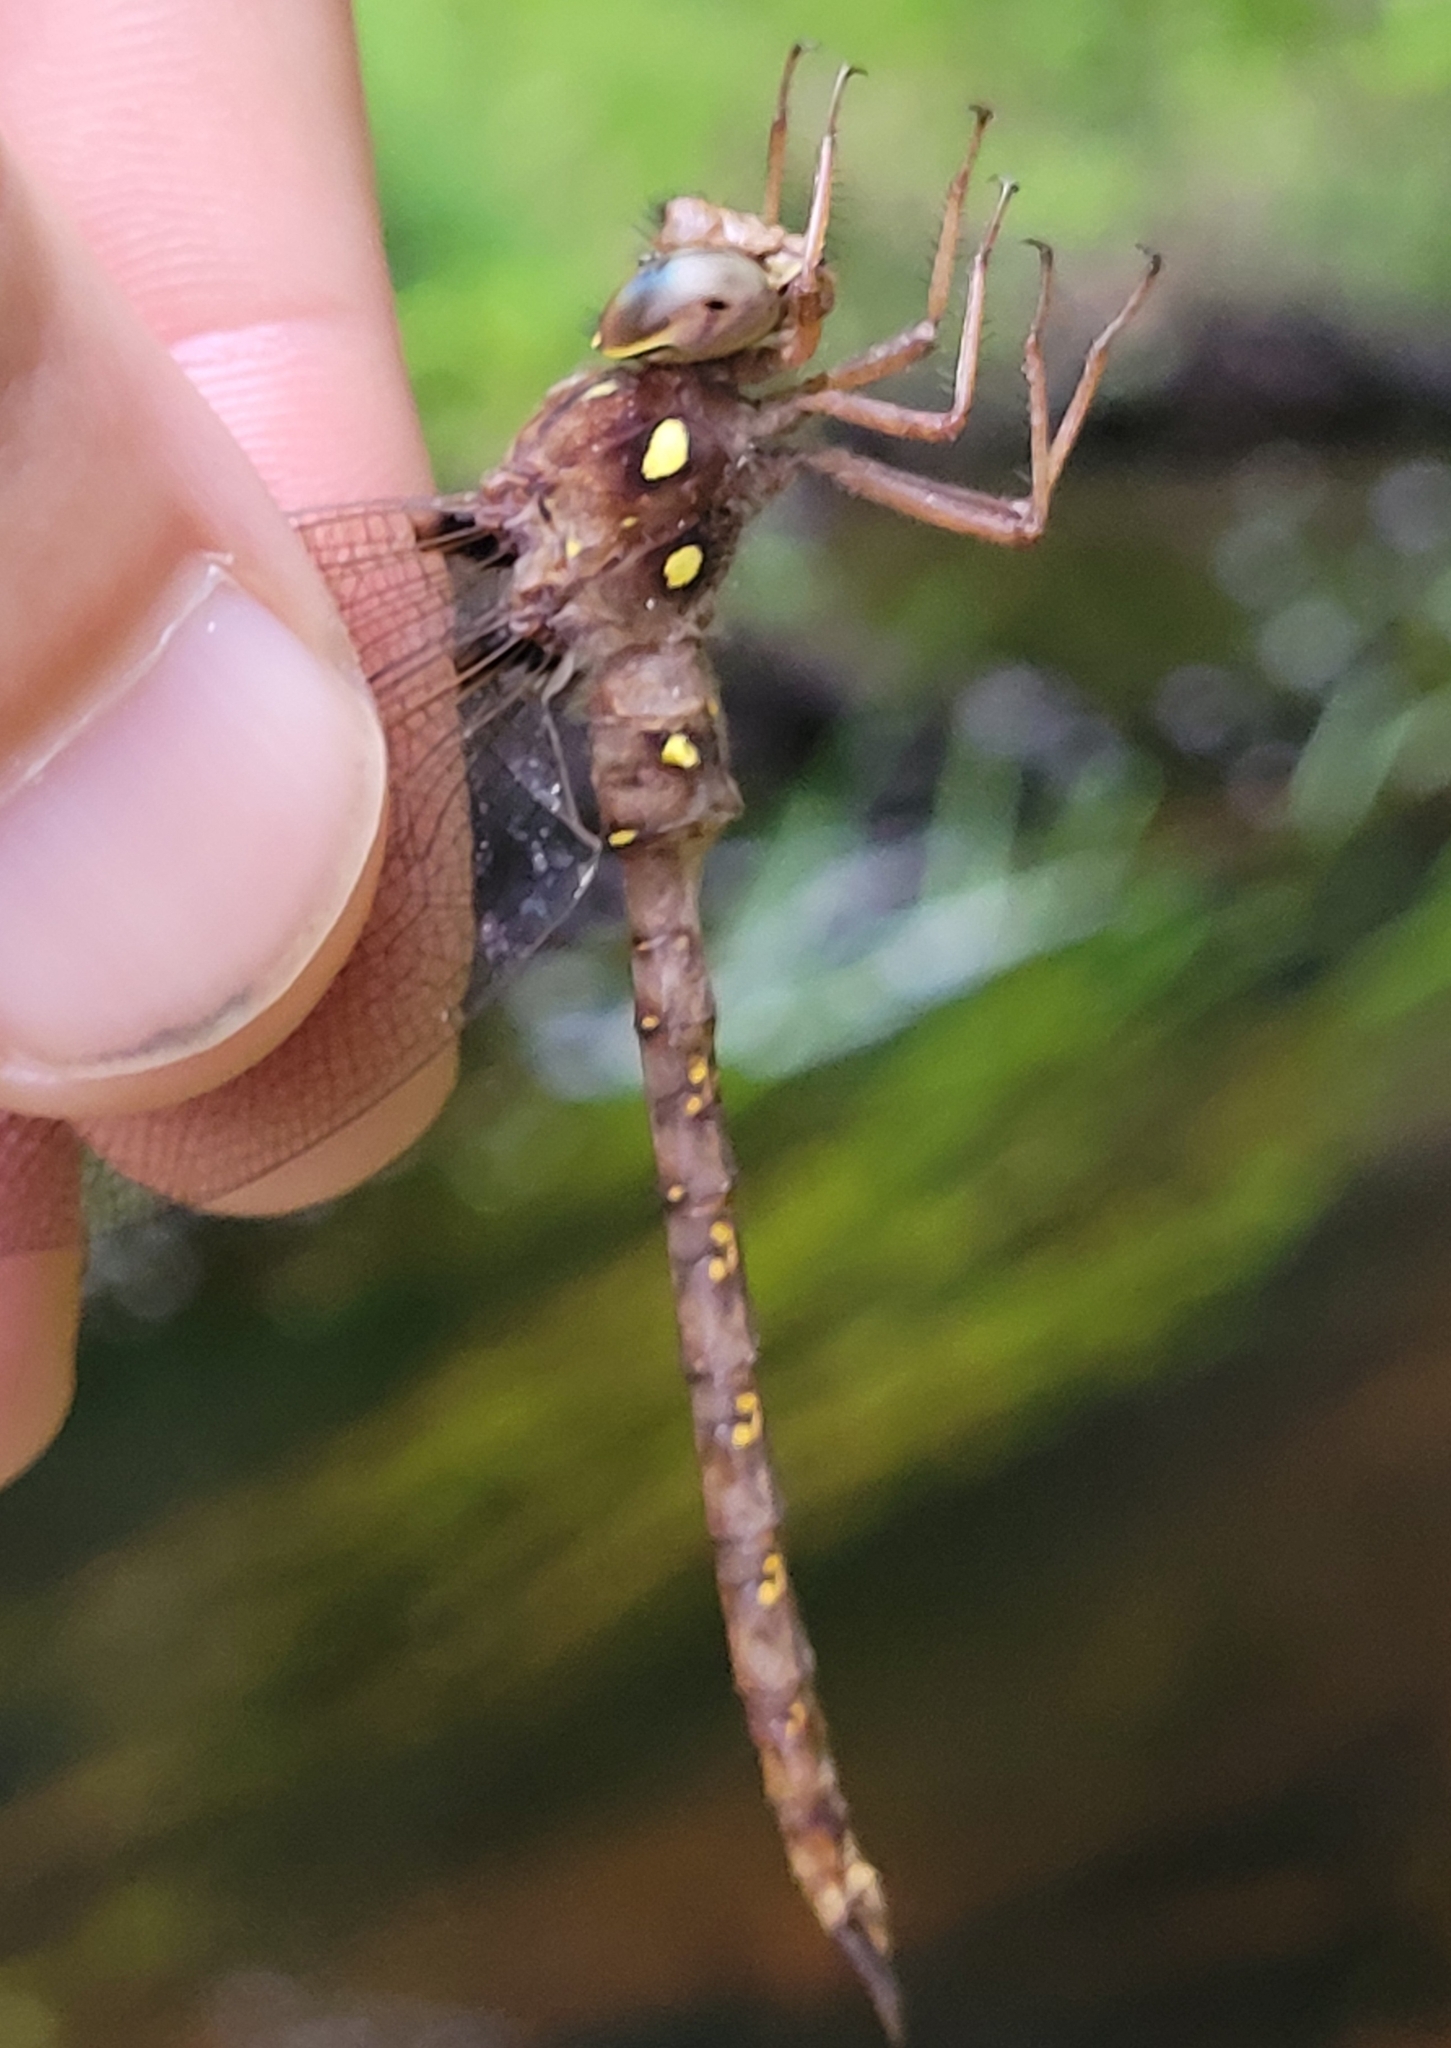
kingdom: Animalia
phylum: Arthropoda
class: Insecta
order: Odonata
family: Aeshnidae
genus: Boyeria
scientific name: Boyeria vinosa
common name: Fawn darner
